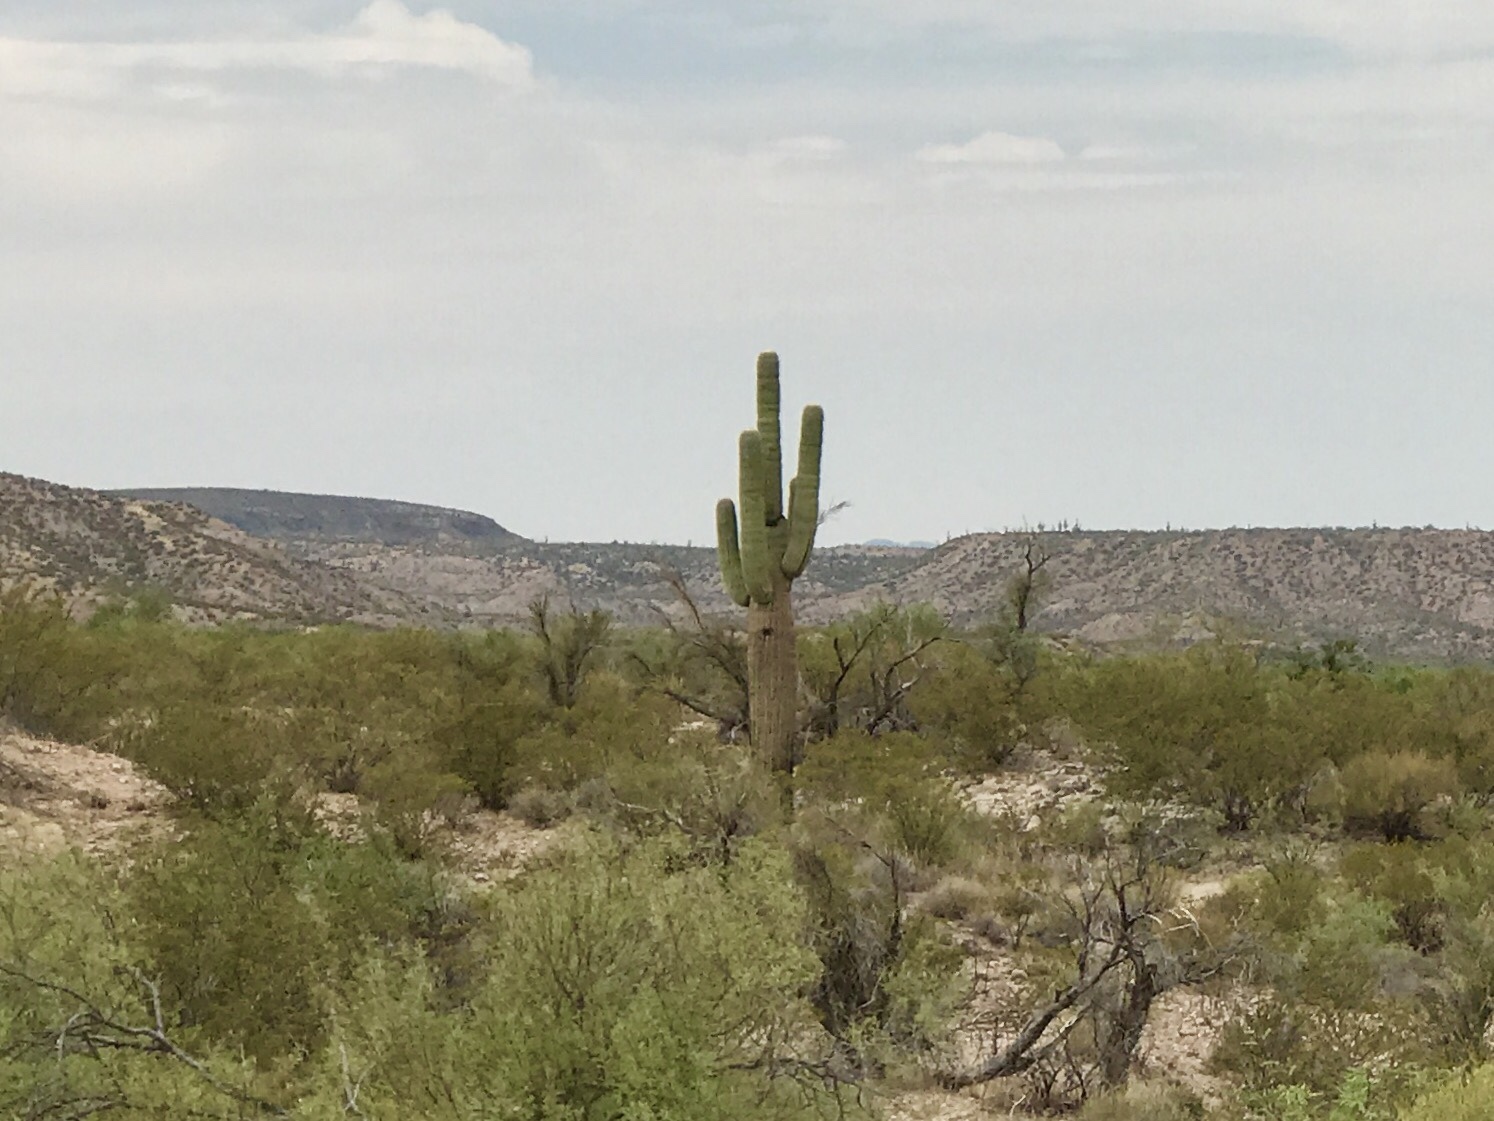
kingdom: Plantae
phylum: Tracheophyta
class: Magnoliopsida
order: Caryophyllales
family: Cactaceae
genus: Carnegiea
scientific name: Carnegiea gigantea
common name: Saguaro
